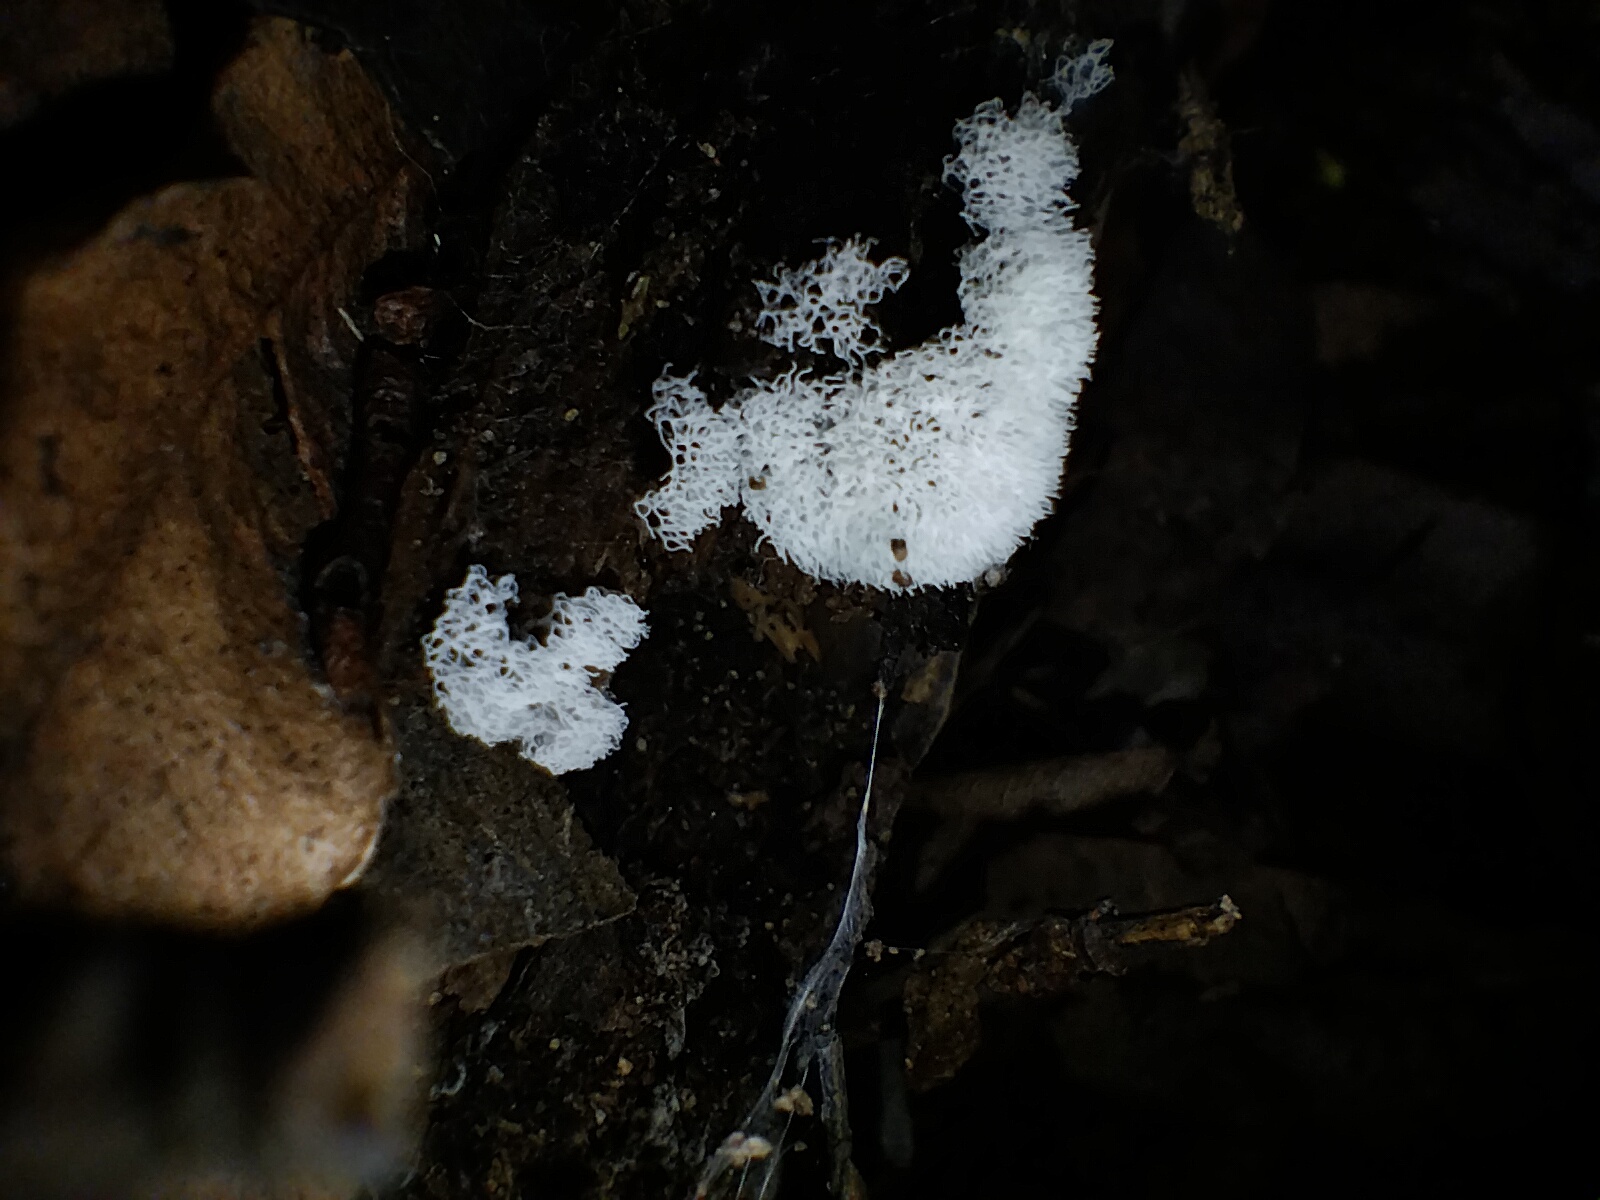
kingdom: Protozoa
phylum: Mycetozoa
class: Protosteliomycetes
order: Ceratiomyxales
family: Ceratiomyxaceae
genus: Ceratiomyxa
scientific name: Ceratiomyxa fruticulosa
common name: Honeycomb coral slime mold
